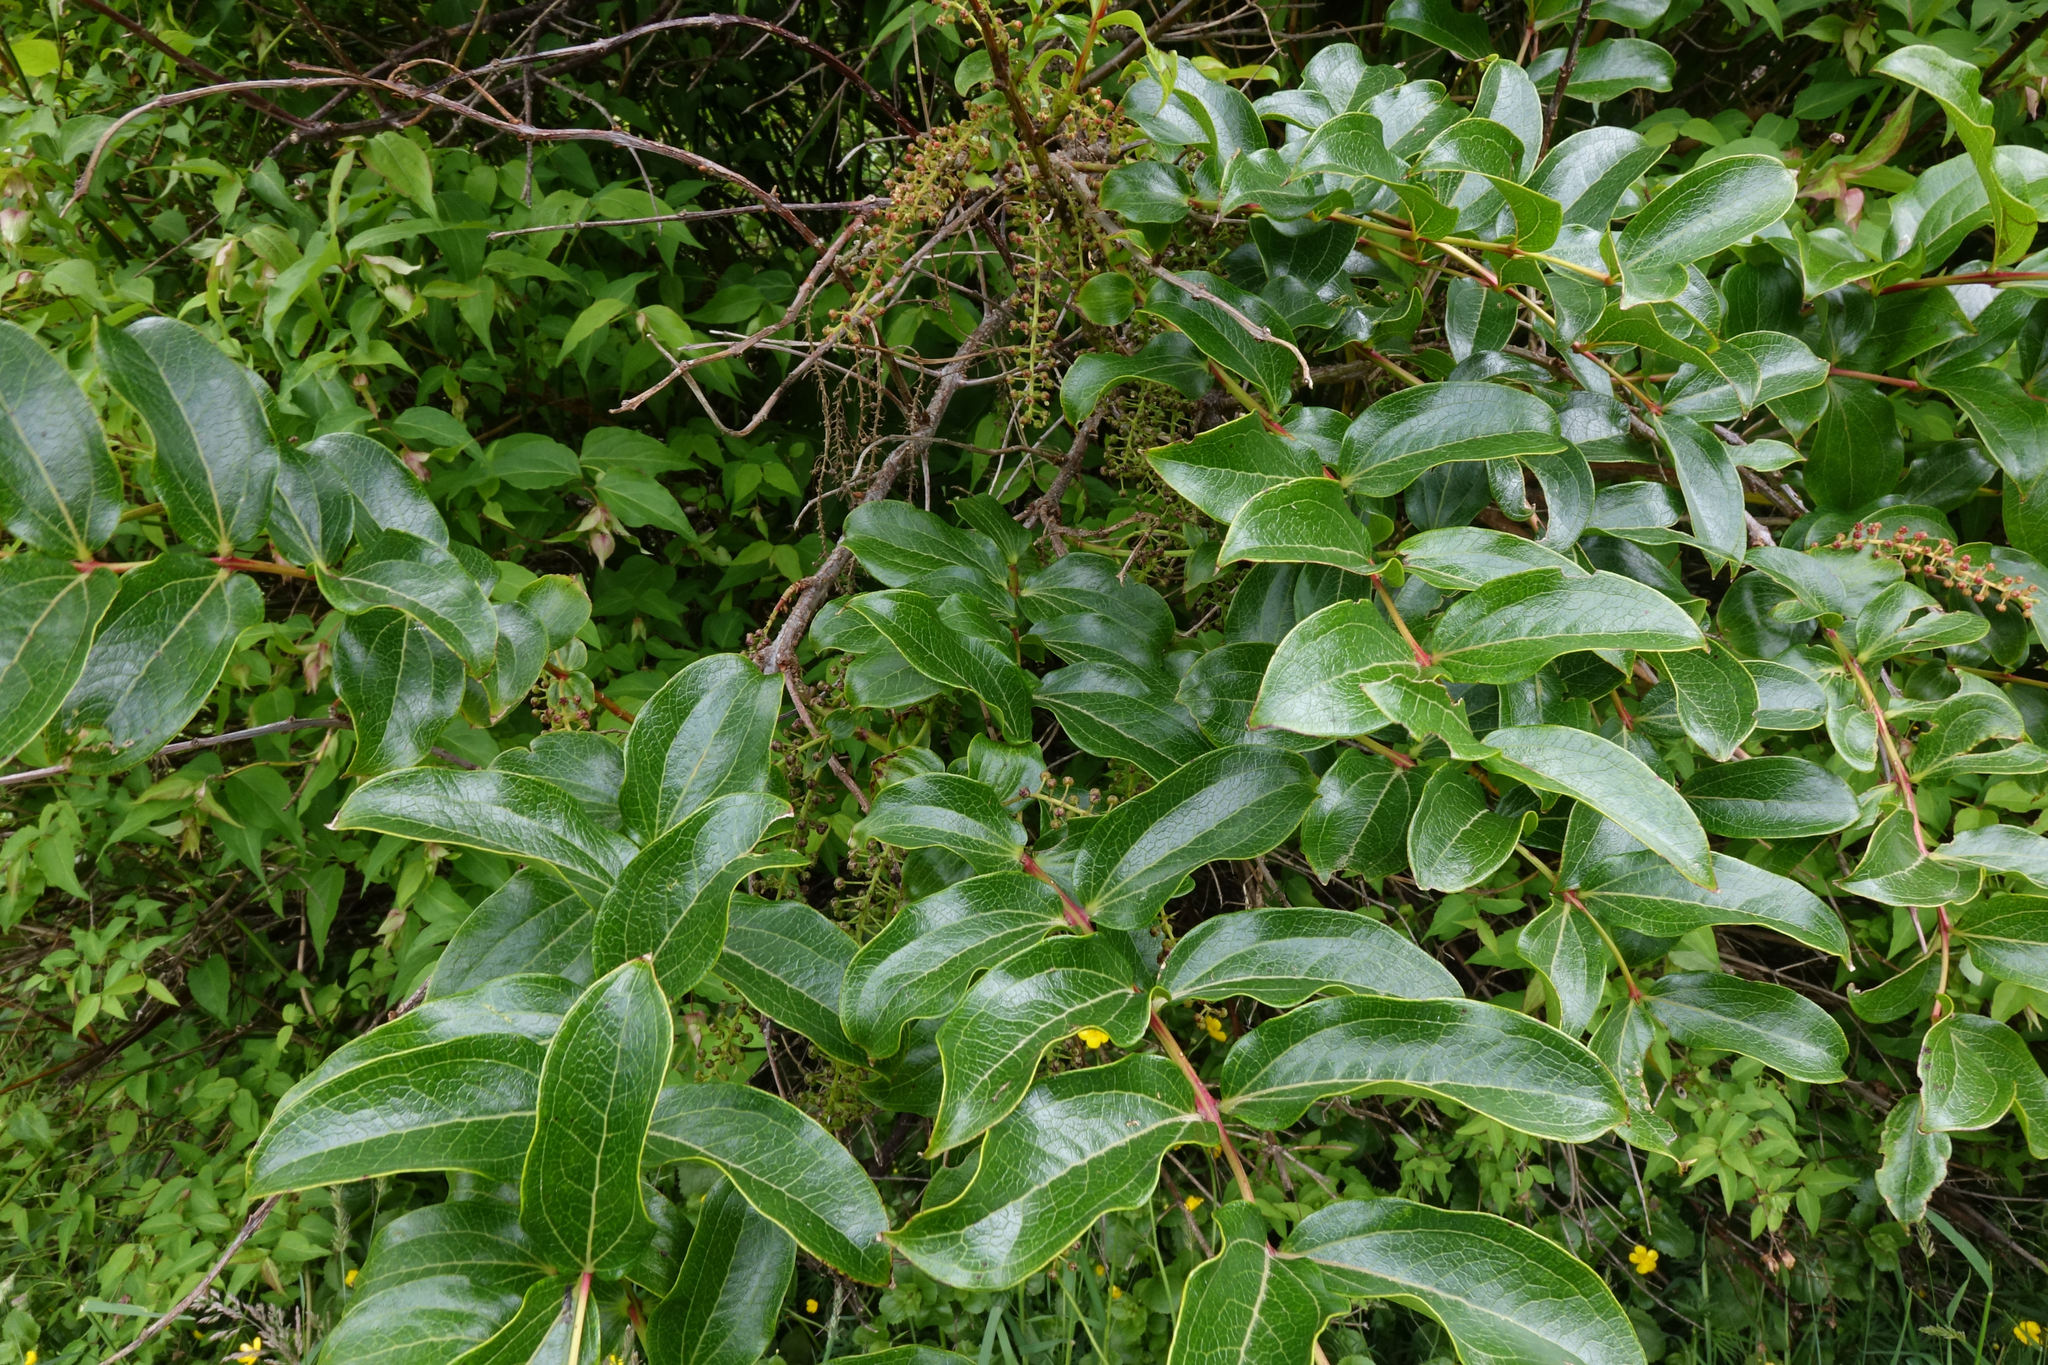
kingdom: Plantae
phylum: Tracheophyta
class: Magnoliopsida
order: Cucurbitales
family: Coriariaceae
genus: Coriaria
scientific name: Coriaria arborea
